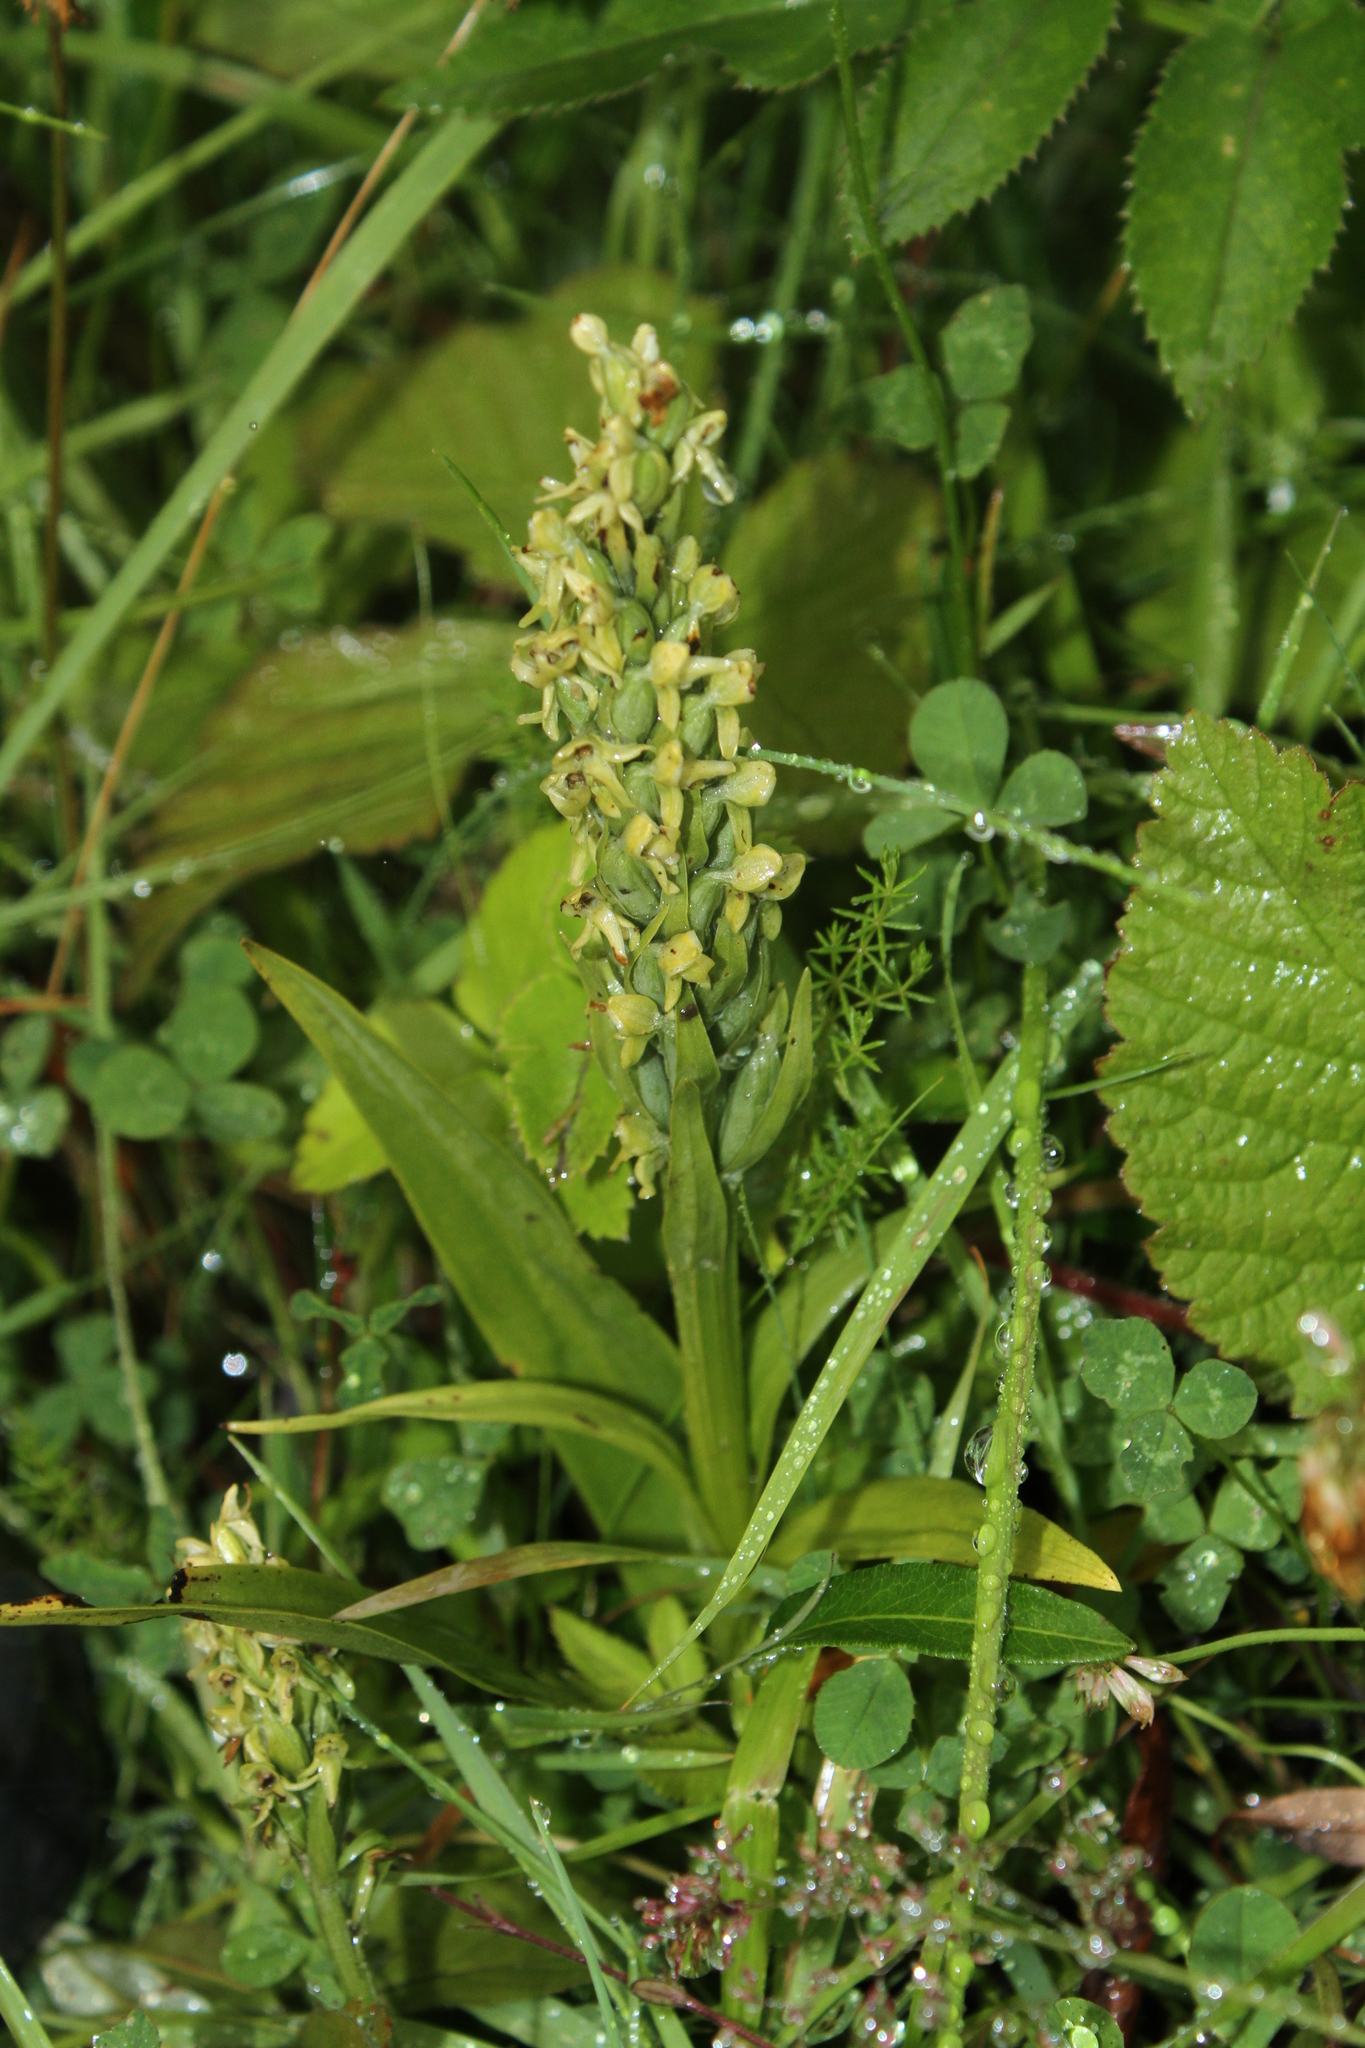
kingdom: Plantae
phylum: Tracheophyta
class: Liliopsida
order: Asparagales
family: Orchidaceae
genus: Platanthera
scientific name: Platanthera hyperborea
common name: Northern green orchid
